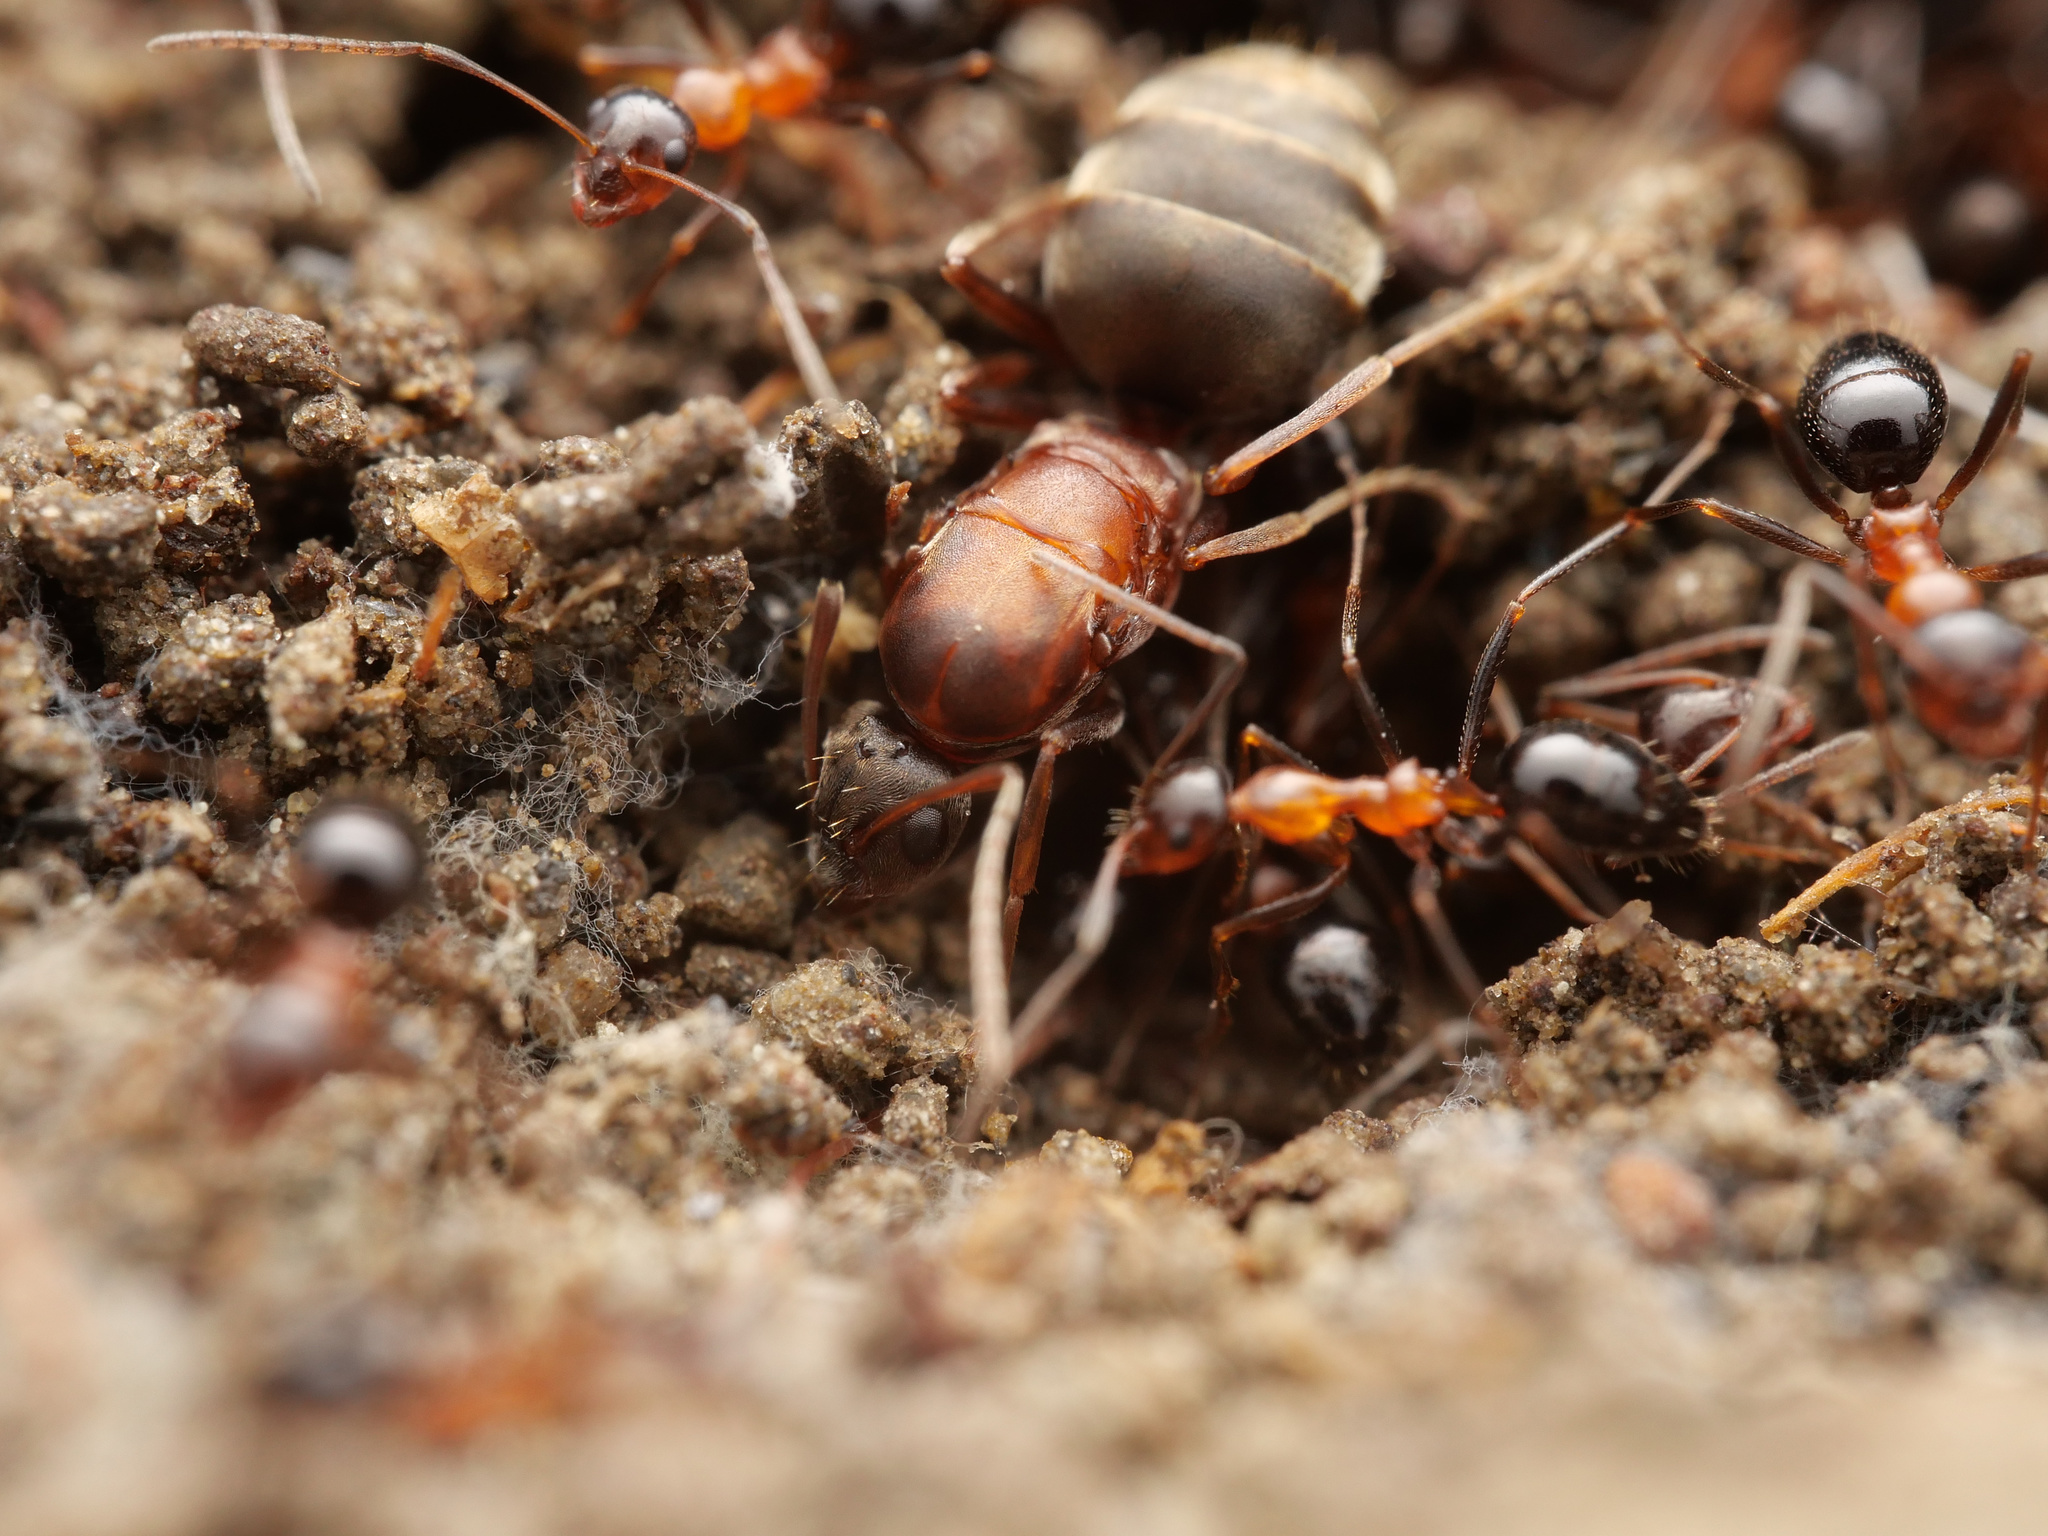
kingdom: Animalia
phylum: Arthropoda
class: Insecta
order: Hymenoptera
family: Formicidae
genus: Lepisiota
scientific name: Lepisiota frauenfeldi
